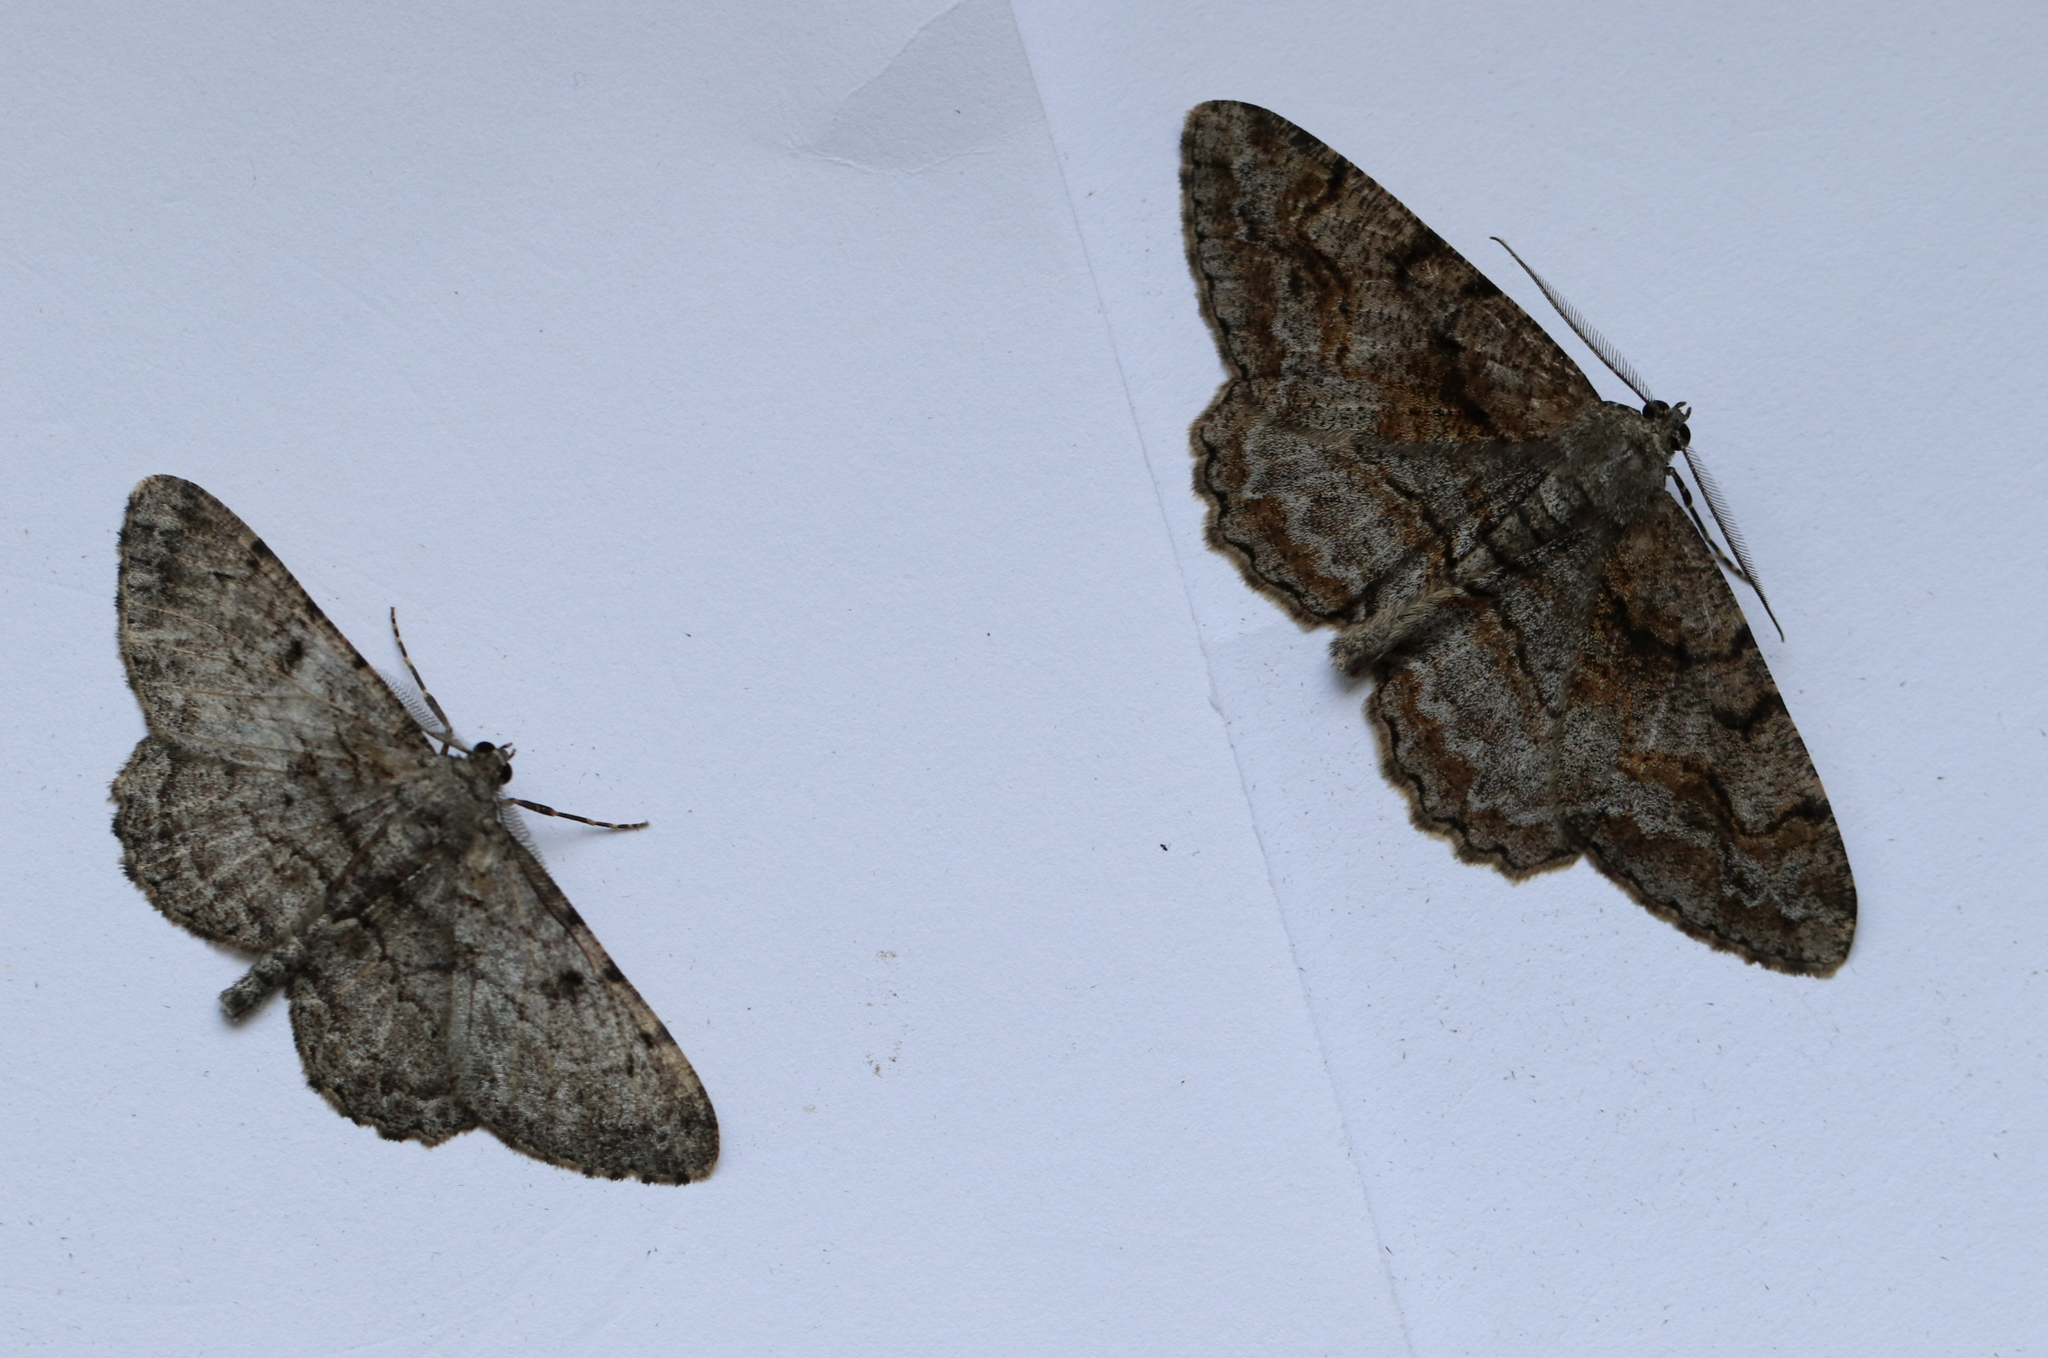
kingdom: Animalia
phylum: Arthropoda
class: Insecta
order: Lepidoptera
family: Geometridae
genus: Alcis
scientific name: Alcis repandata
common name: Mottled beauty
